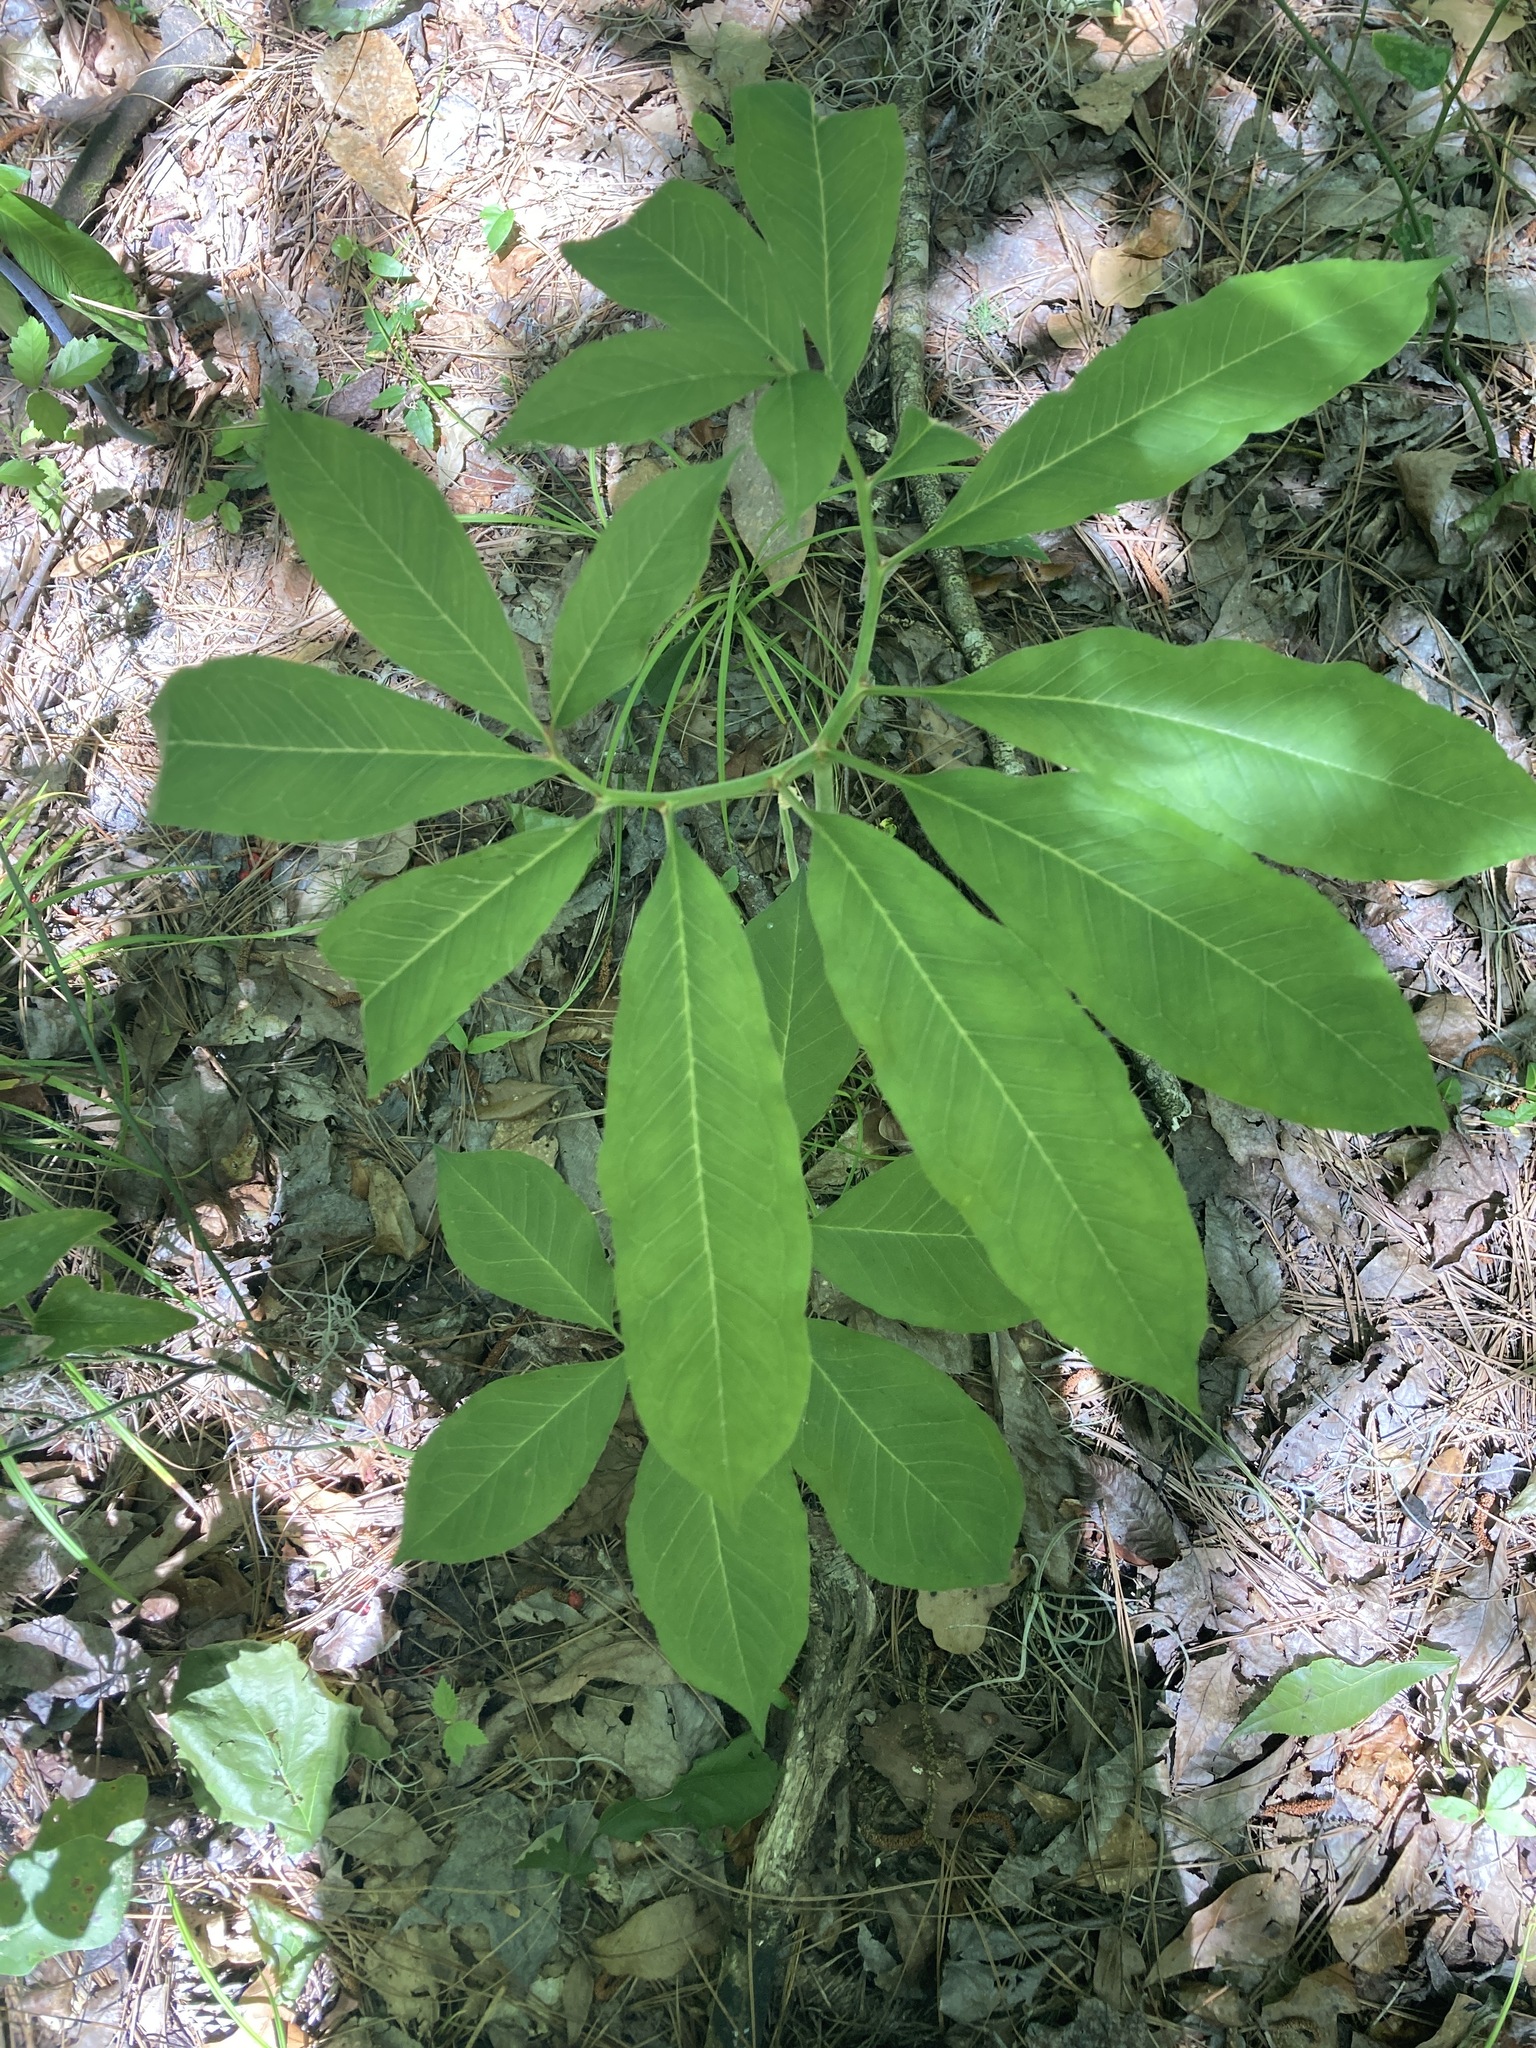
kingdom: Plantae
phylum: Tracheophyta
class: Liliopsida
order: Alismatales
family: Araceae
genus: Arisaema
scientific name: Arisaema dracontium
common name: Dragon-arum
